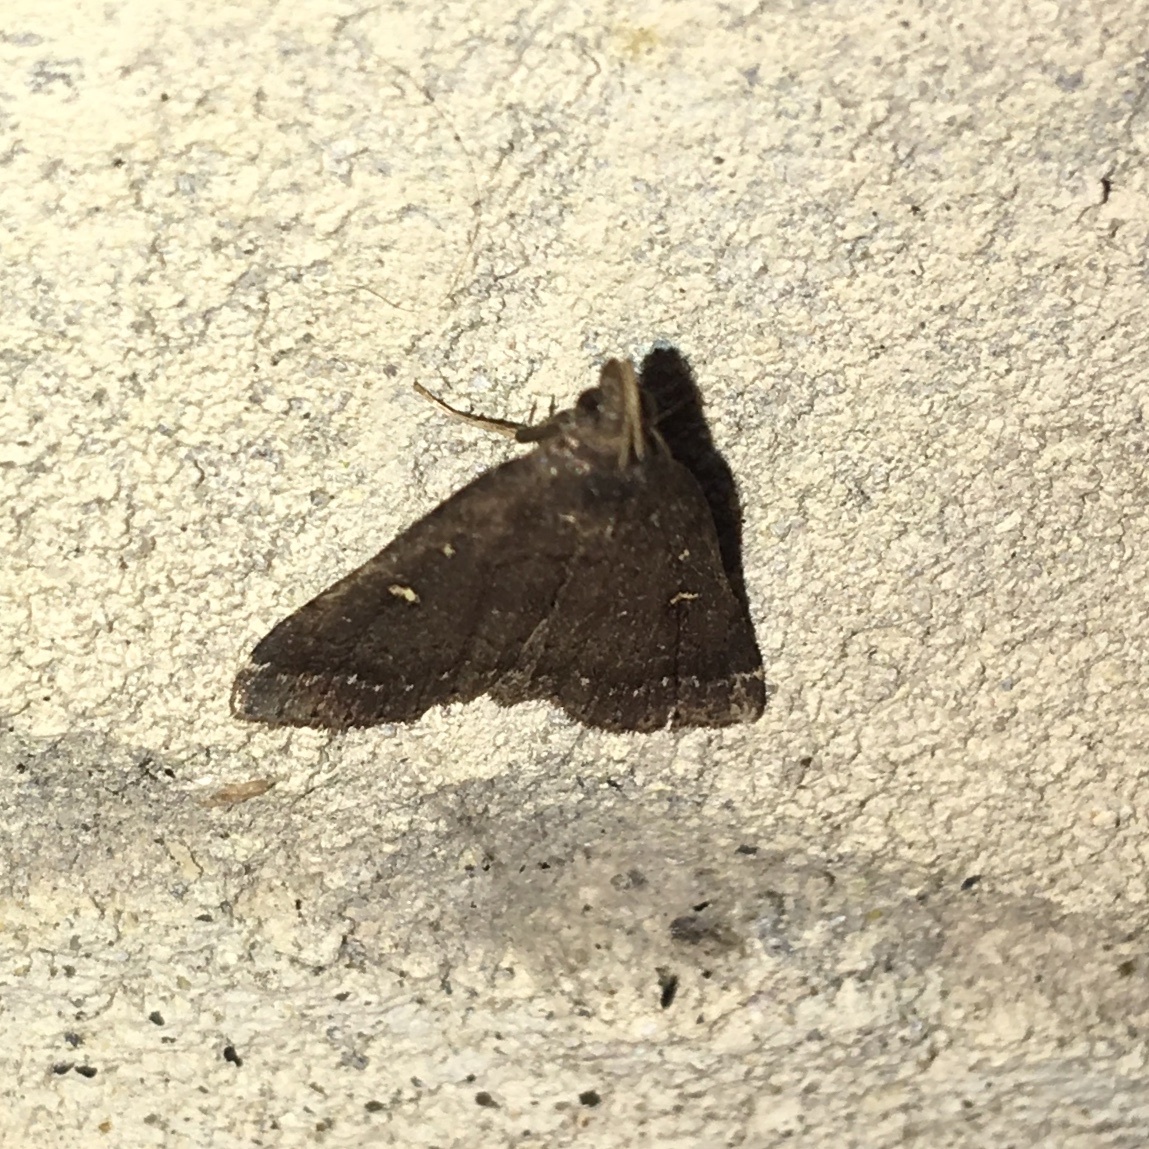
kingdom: Animalia
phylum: Arthropoda
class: Insecta
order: Lepidoptera
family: Erebidae
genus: Tetanolita
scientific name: Tetanolita mynesalis
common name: Smoky tetanolita moth
